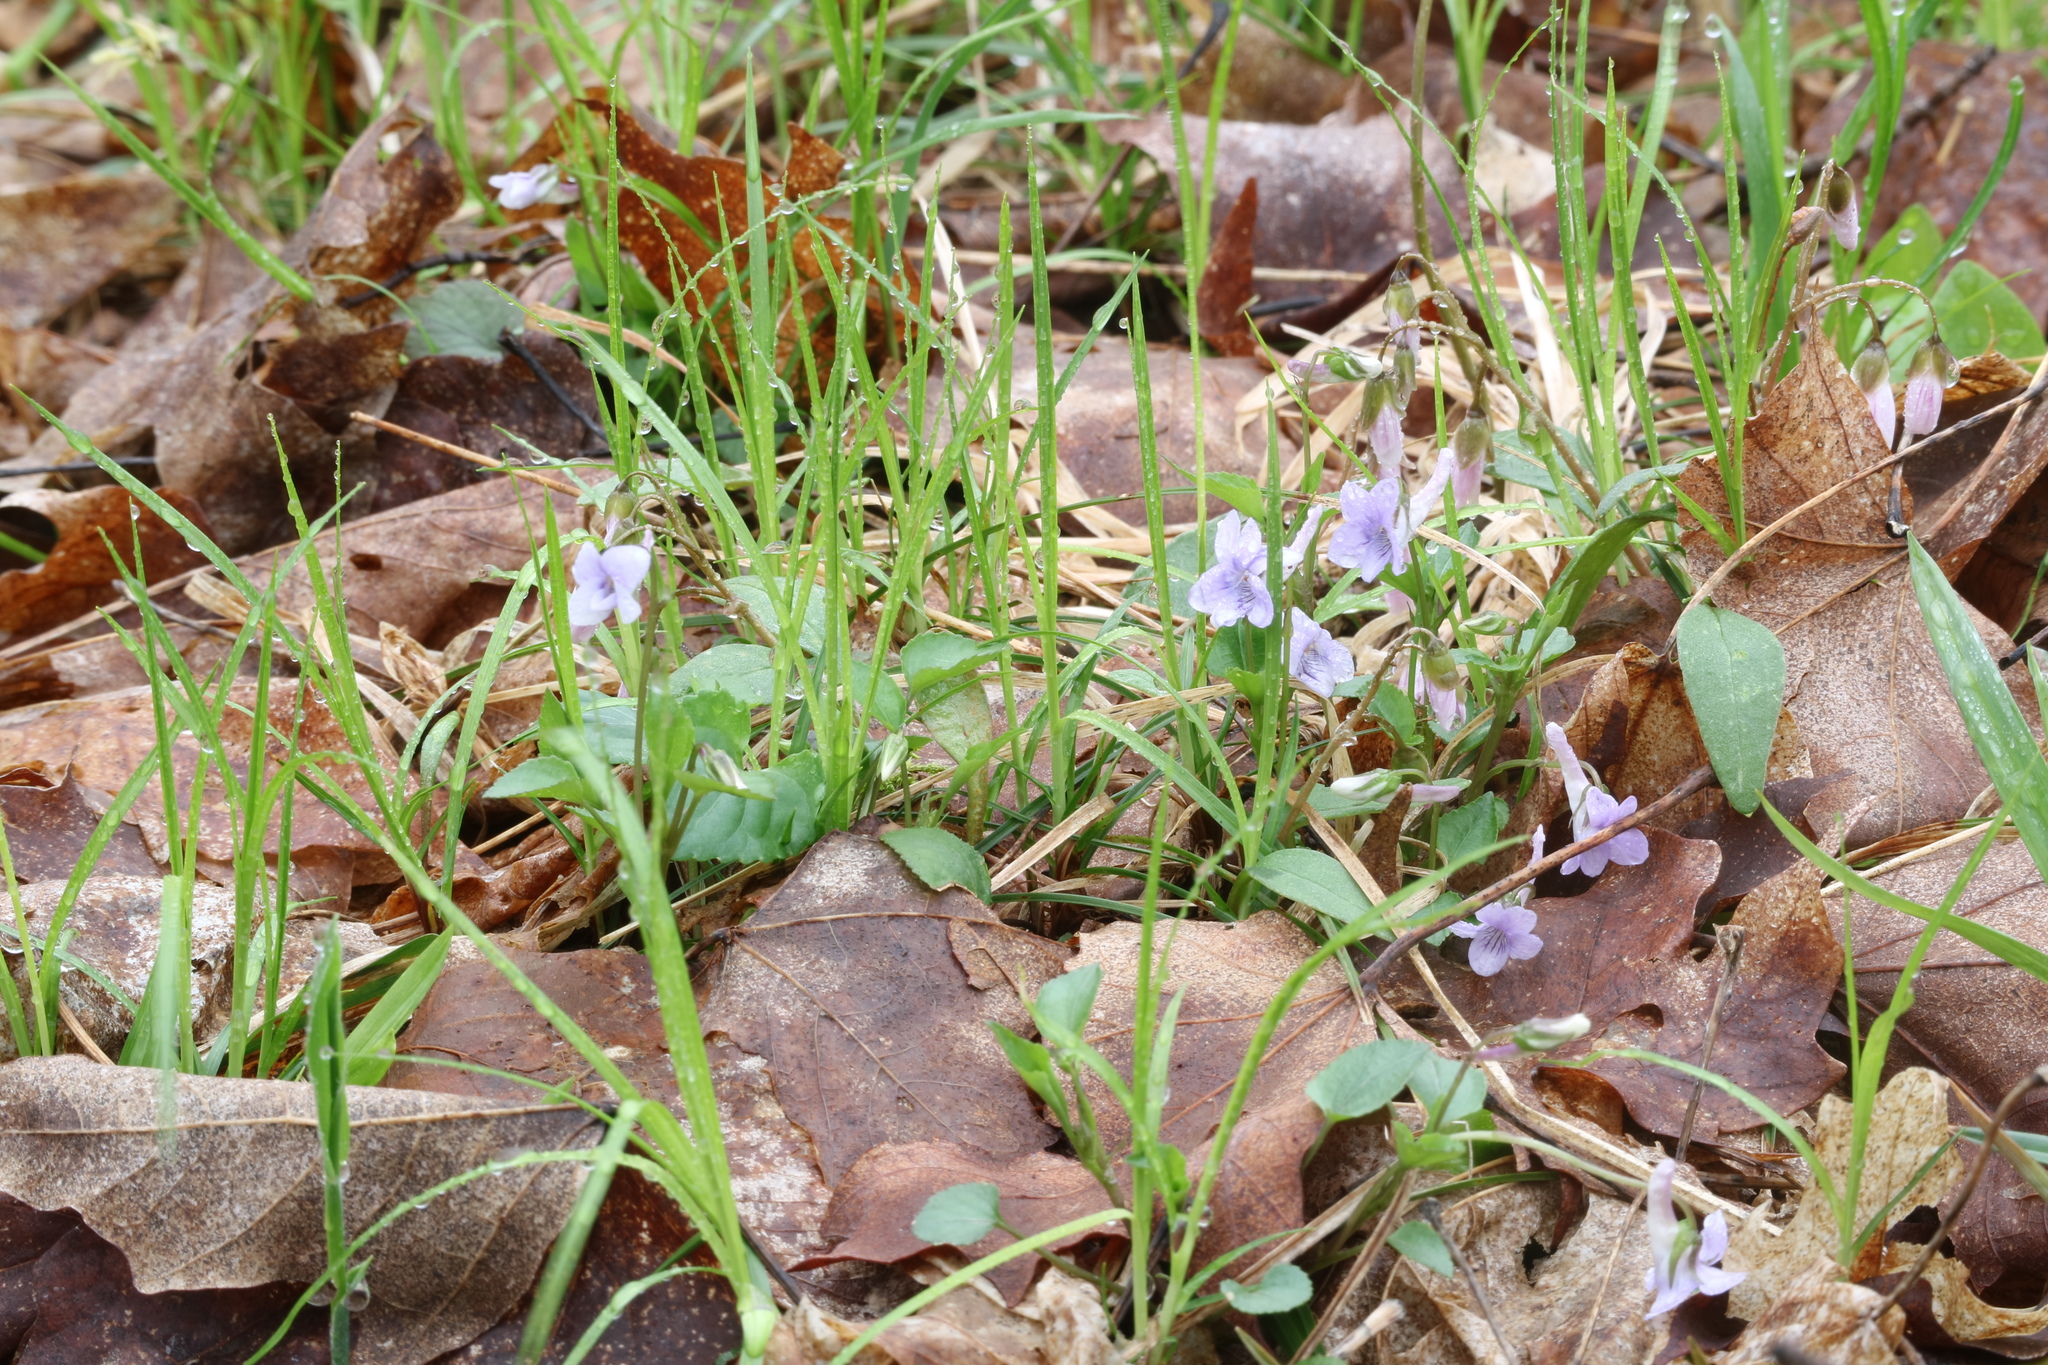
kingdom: Plantae
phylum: Tracheophyta
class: Magnoliopsida
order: Malpighiales
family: Violaceae
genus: Viola
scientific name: Viola rostrata
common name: Long-spur violet
